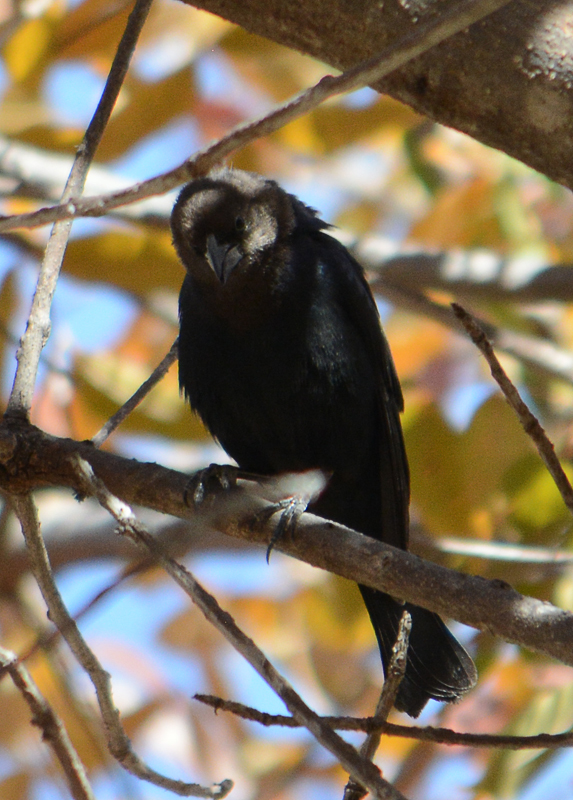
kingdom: Animalia
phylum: Chordata
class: Aves
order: Passeriformes
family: Icteridae
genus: Molothrus
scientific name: Molothrus ater
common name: Brown-headed cowbird
